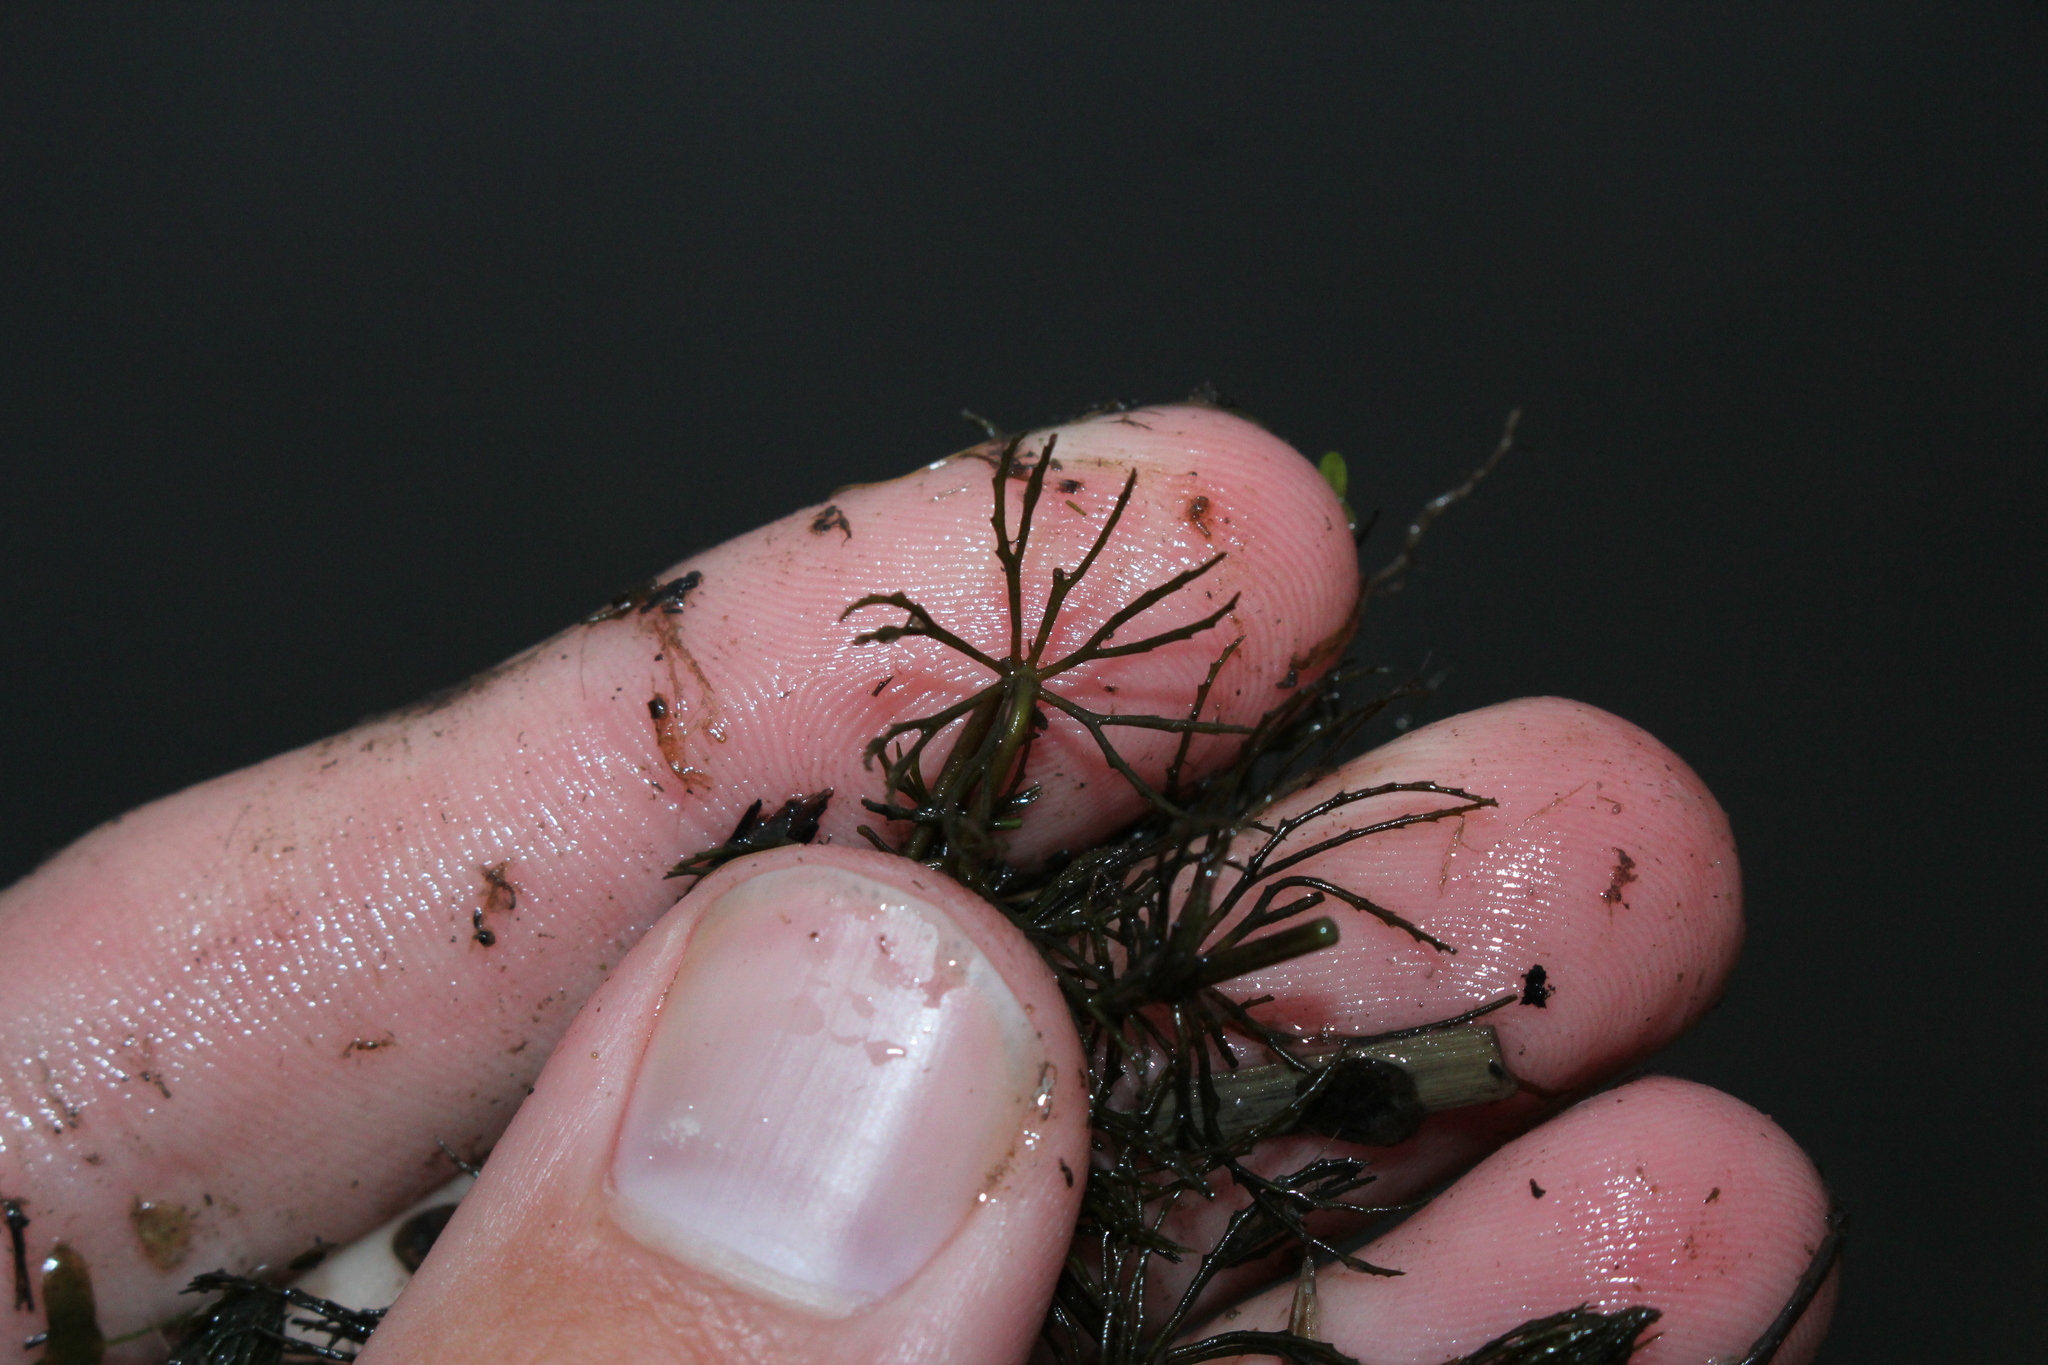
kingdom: Plantae
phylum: Tracheophyta
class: Magnoliopsida
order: Ceratophyllales
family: Ceratophyllaceae
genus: Ceratophyllum
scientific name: Ceratophyllum demersum
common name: Rigid hornwort
